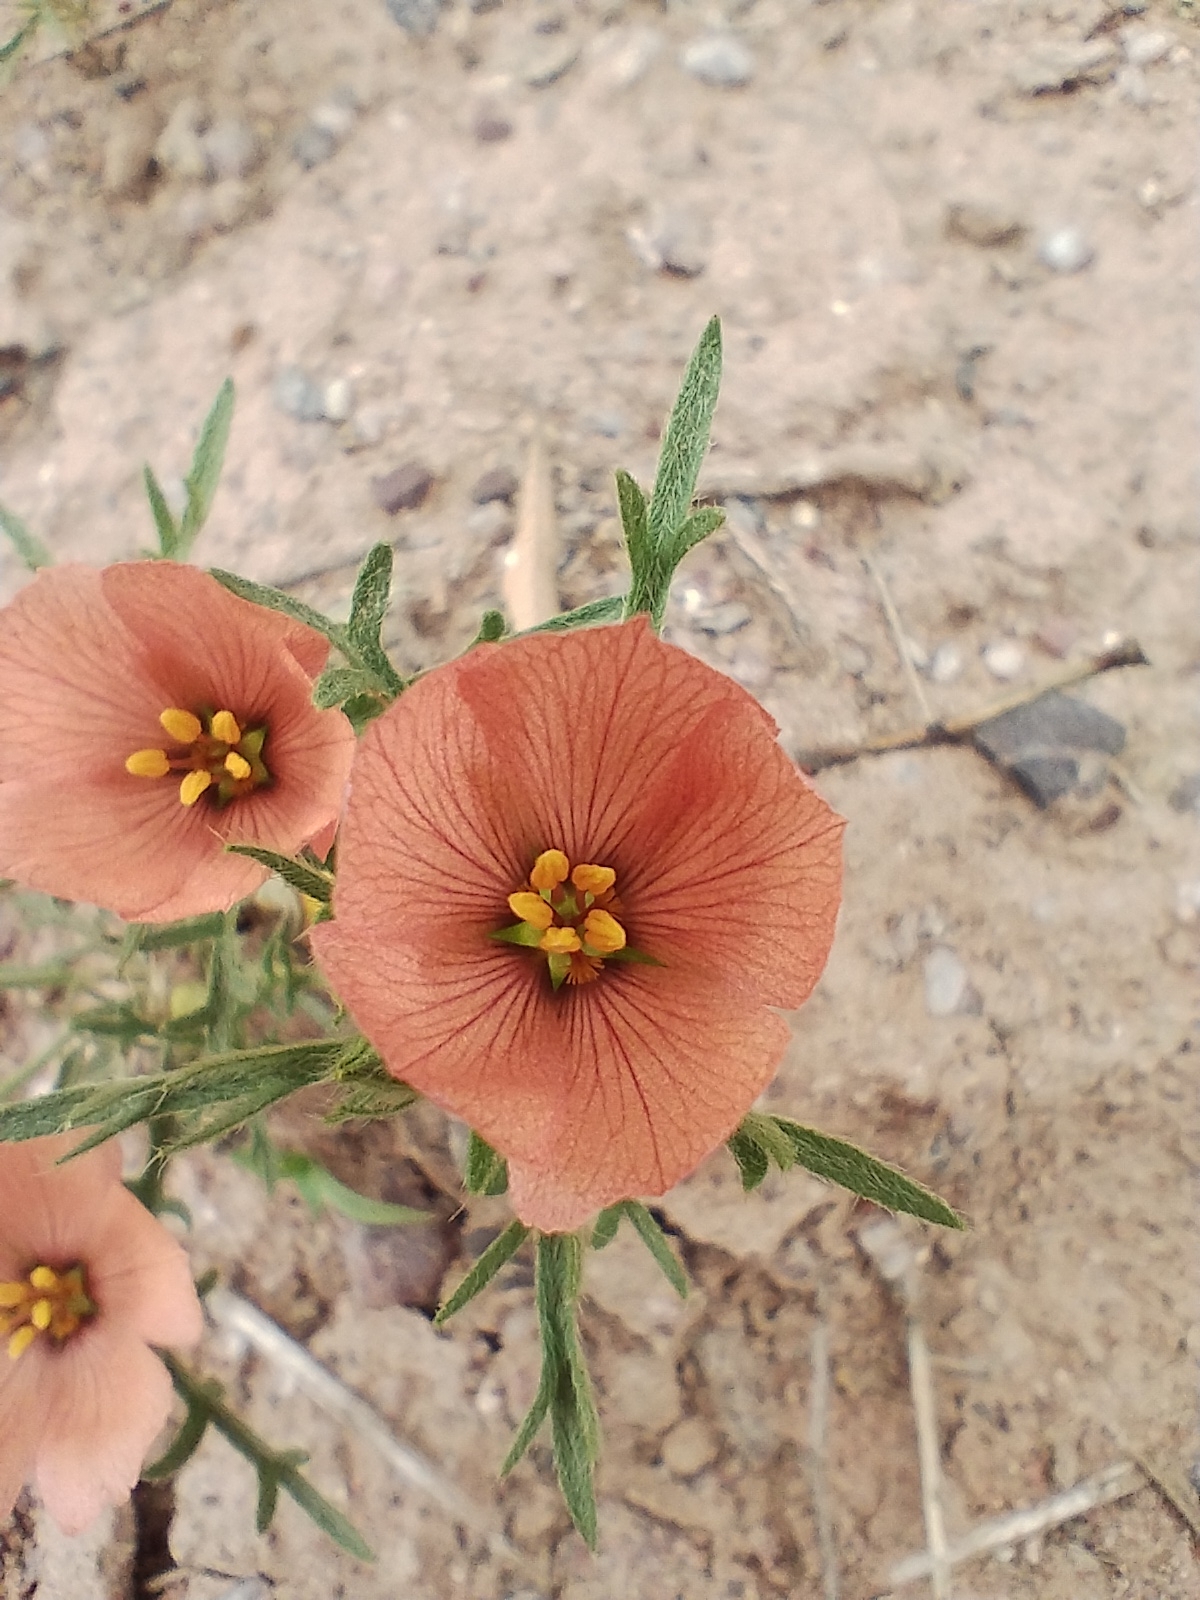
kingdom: Plantae
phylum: Tracheophyta
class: Magnoliopsida
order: Malpighiales
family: Turneraceae
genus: Turnera
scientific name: Turnera sidoides
